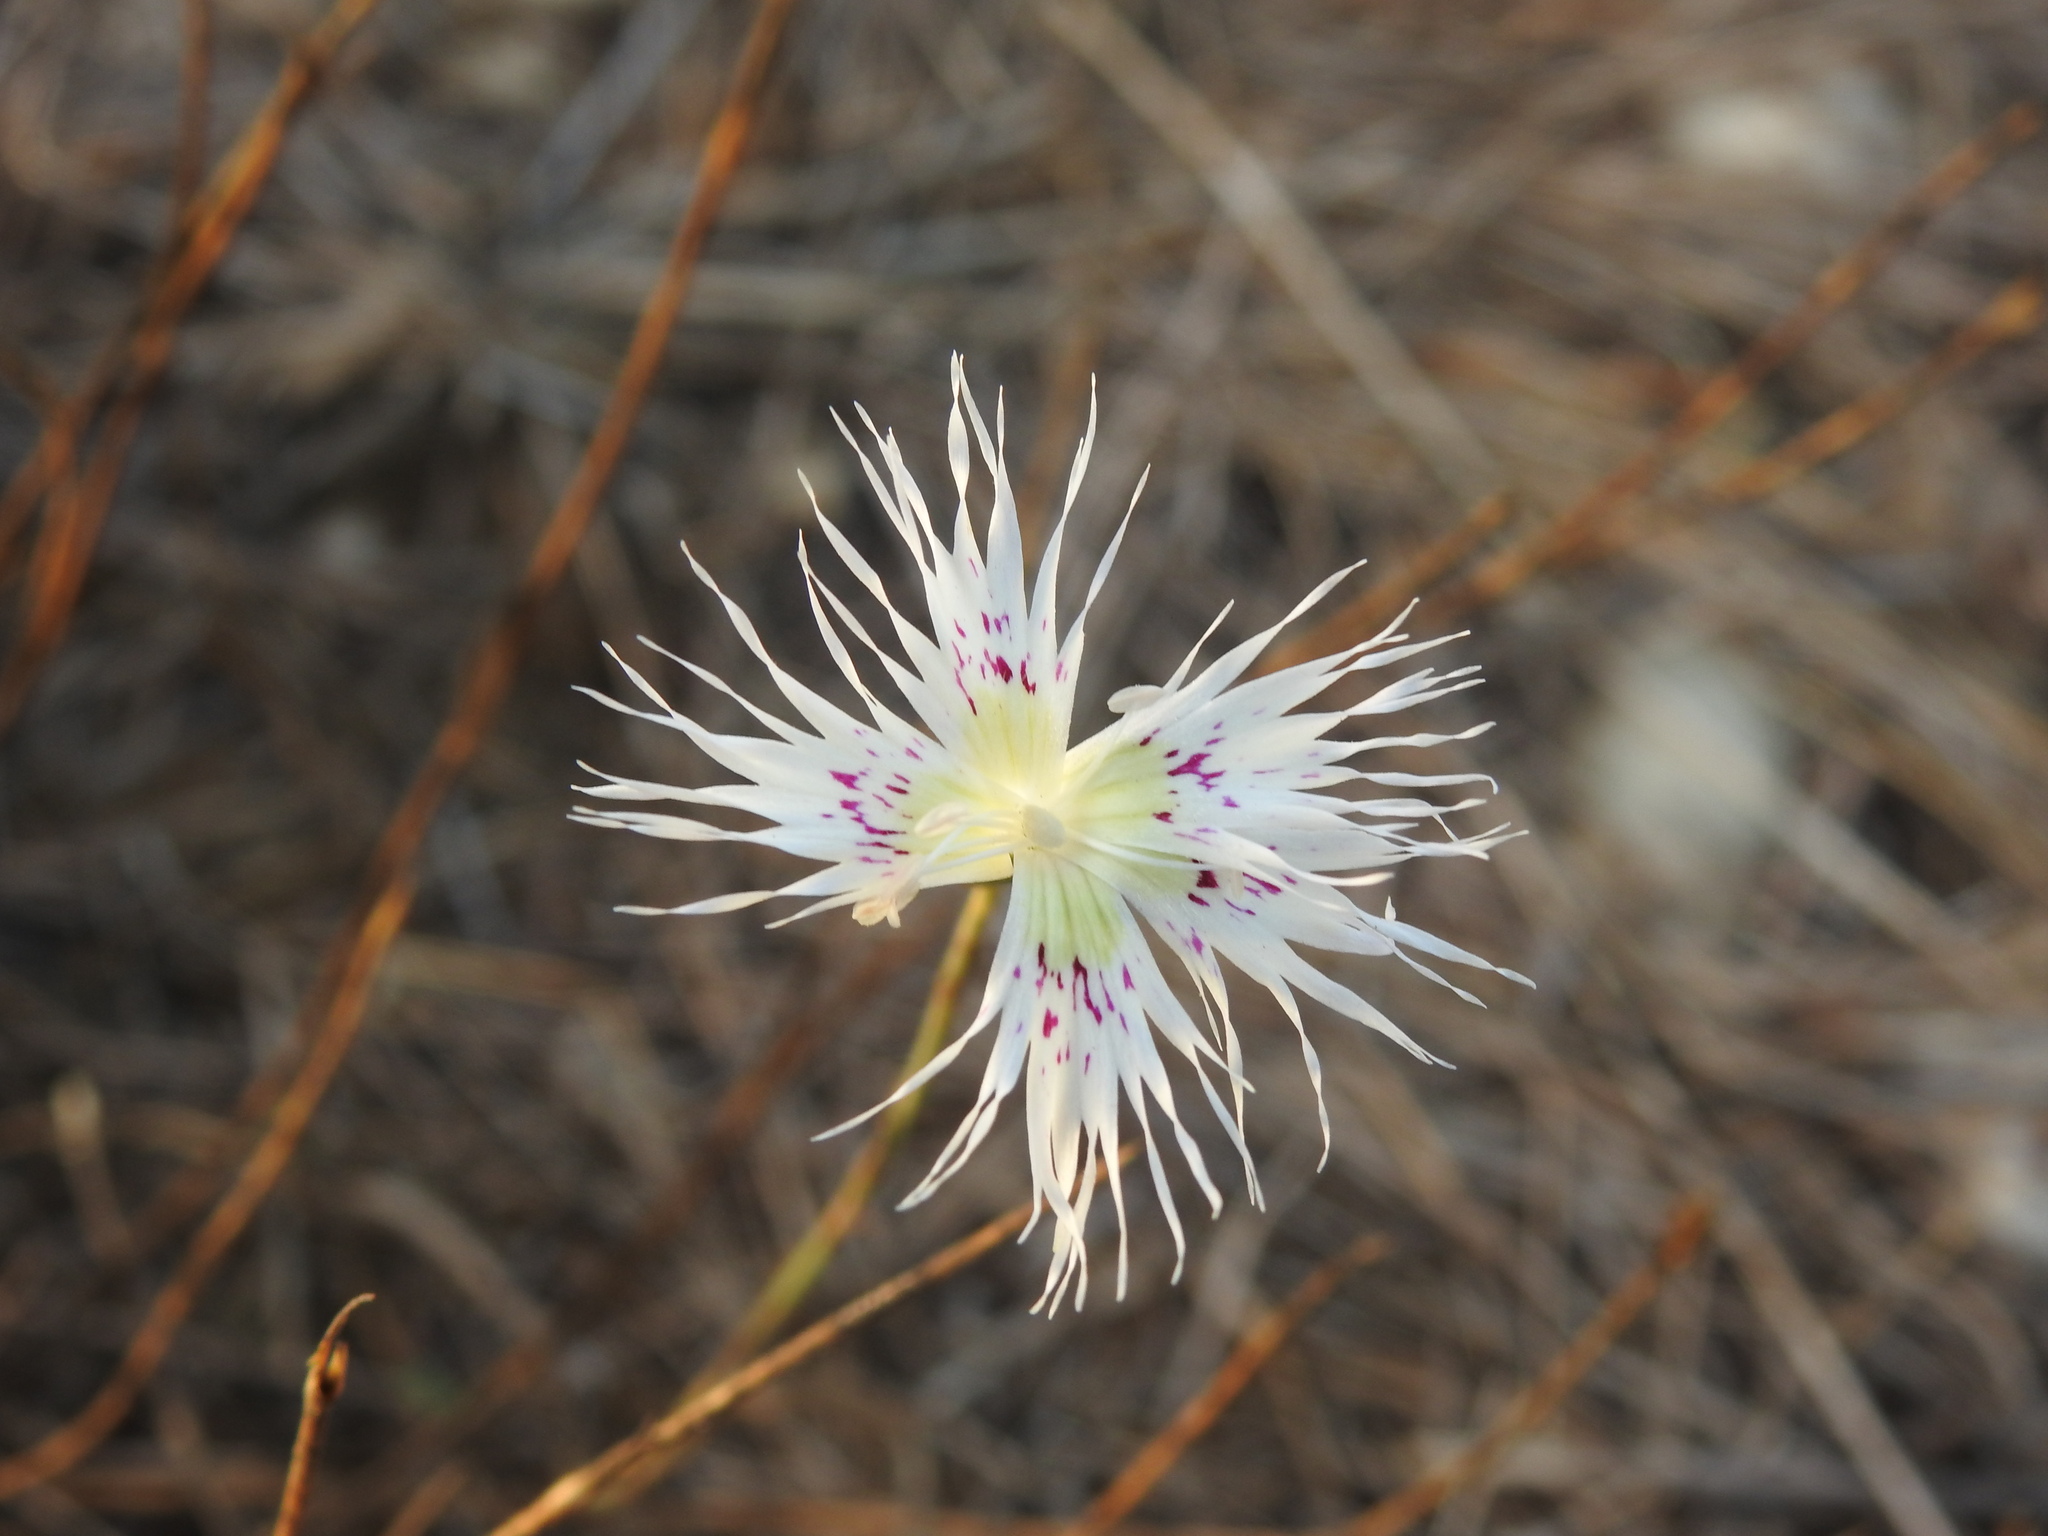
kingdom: Plantae
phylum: Tracheophyta
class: Magnoliopsida
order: Caryophyllales
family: Caryophyllaceae
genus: Dianthus
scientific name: Dianthus broteri
